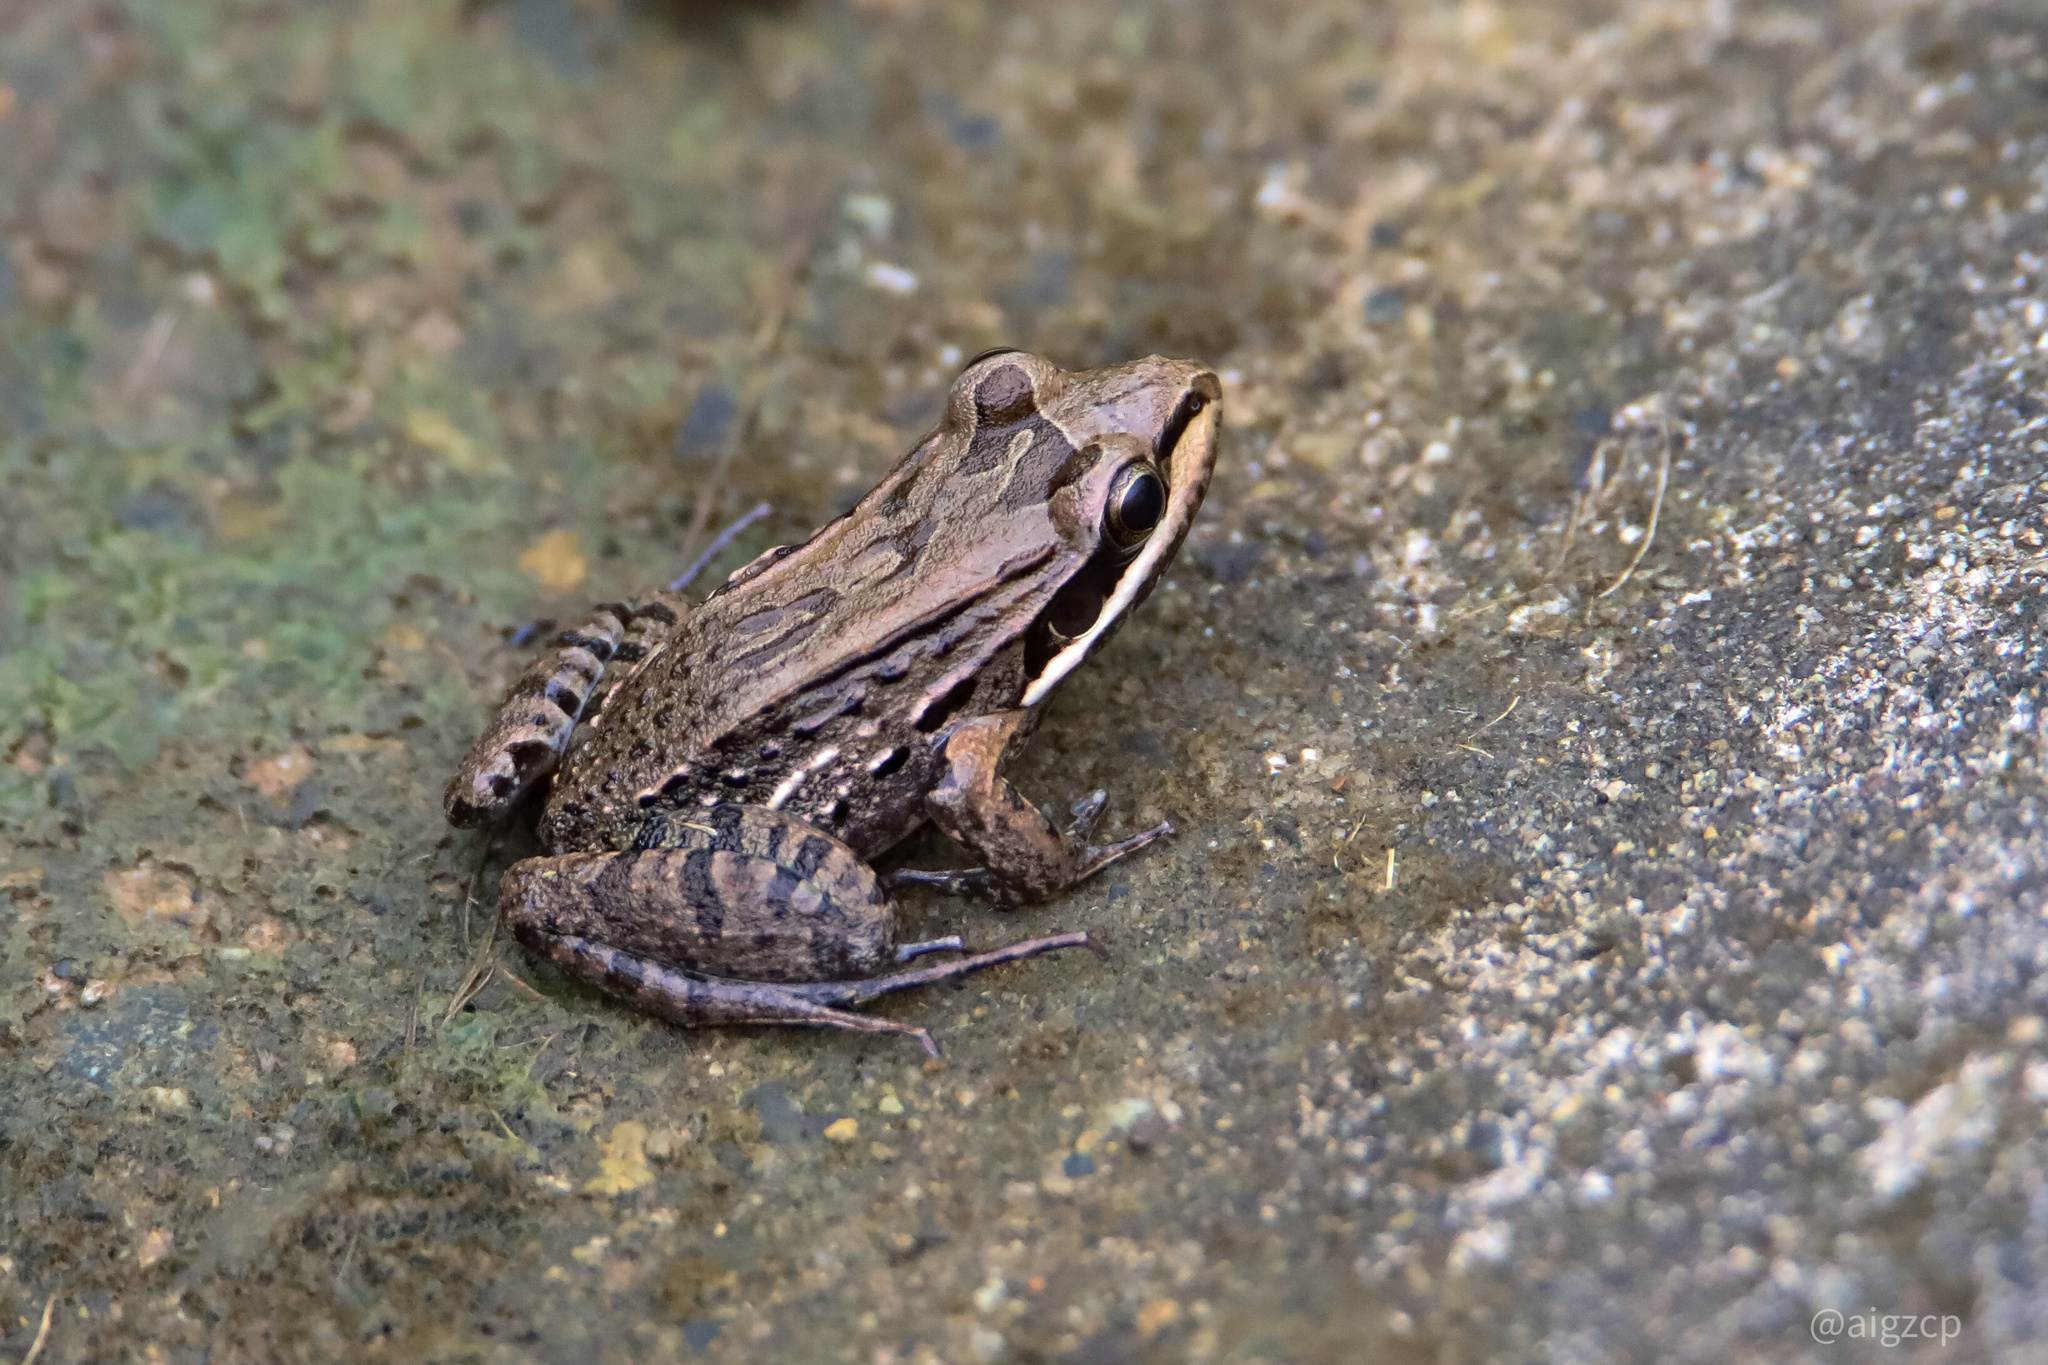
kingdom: Animalia
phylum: Chordata
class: Amphibia
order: Anura
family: Leptodactylidae
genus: Leptodactylus
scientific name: Leptodactylus fragilis
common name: Mexican white-lipped frog
